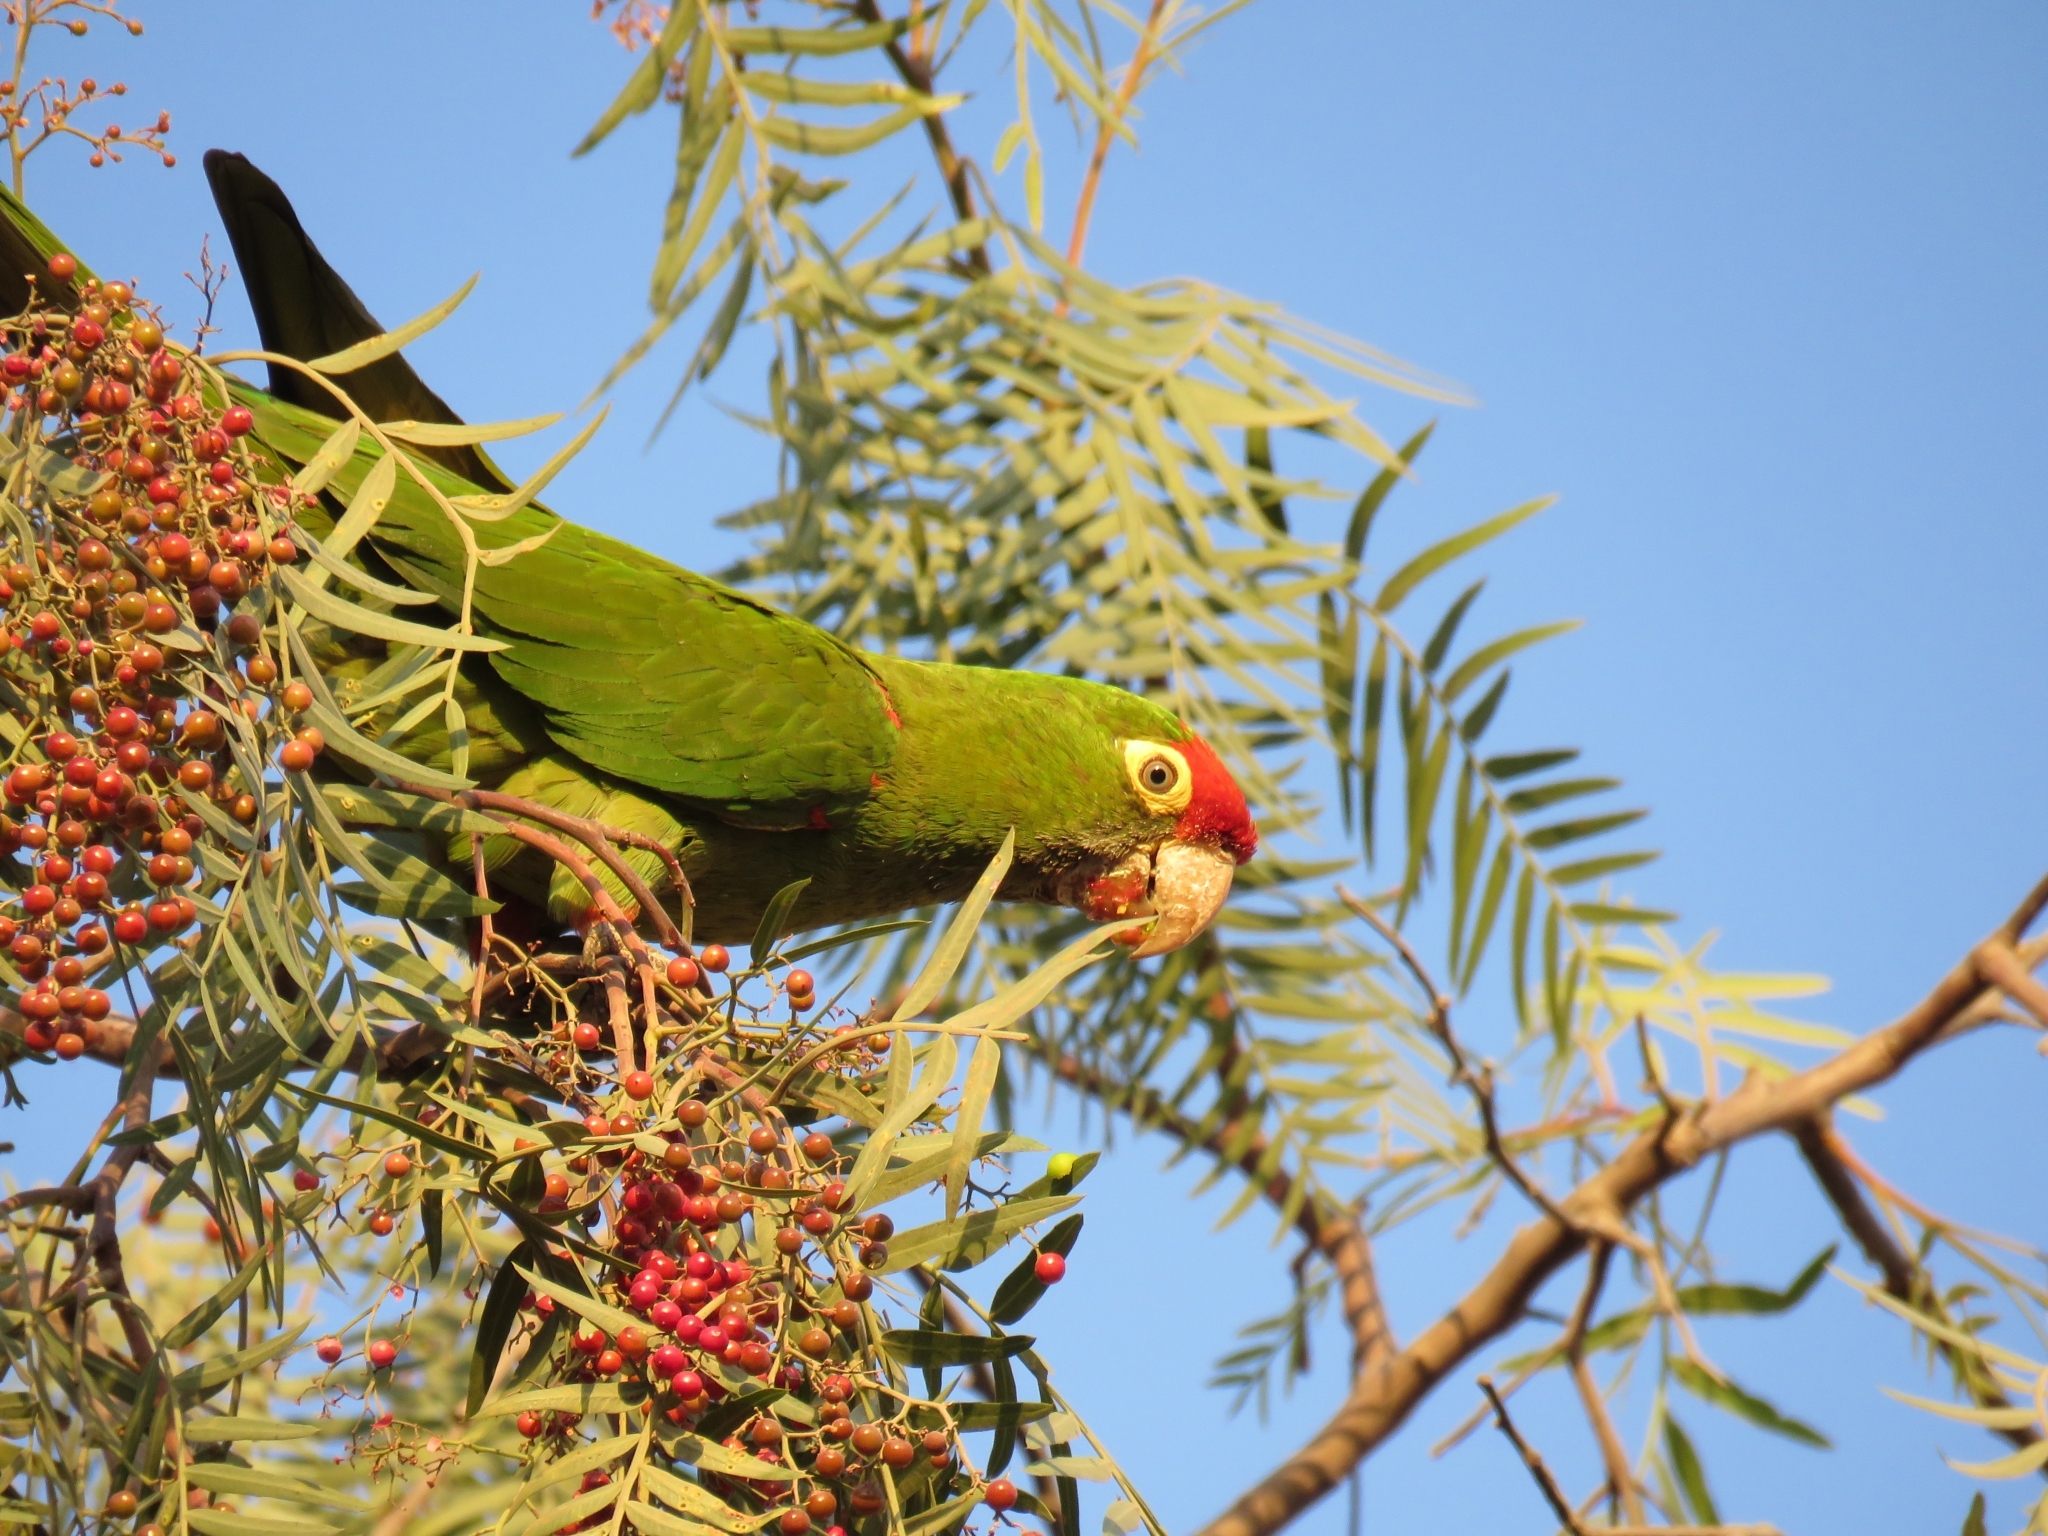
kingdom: Animalia
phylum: Chordata
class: Aves
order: Psittaciformes
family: Psittacidae
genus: Aratinga
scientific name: Aratinga wagleri
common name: Scarlet-fronted parakeet
